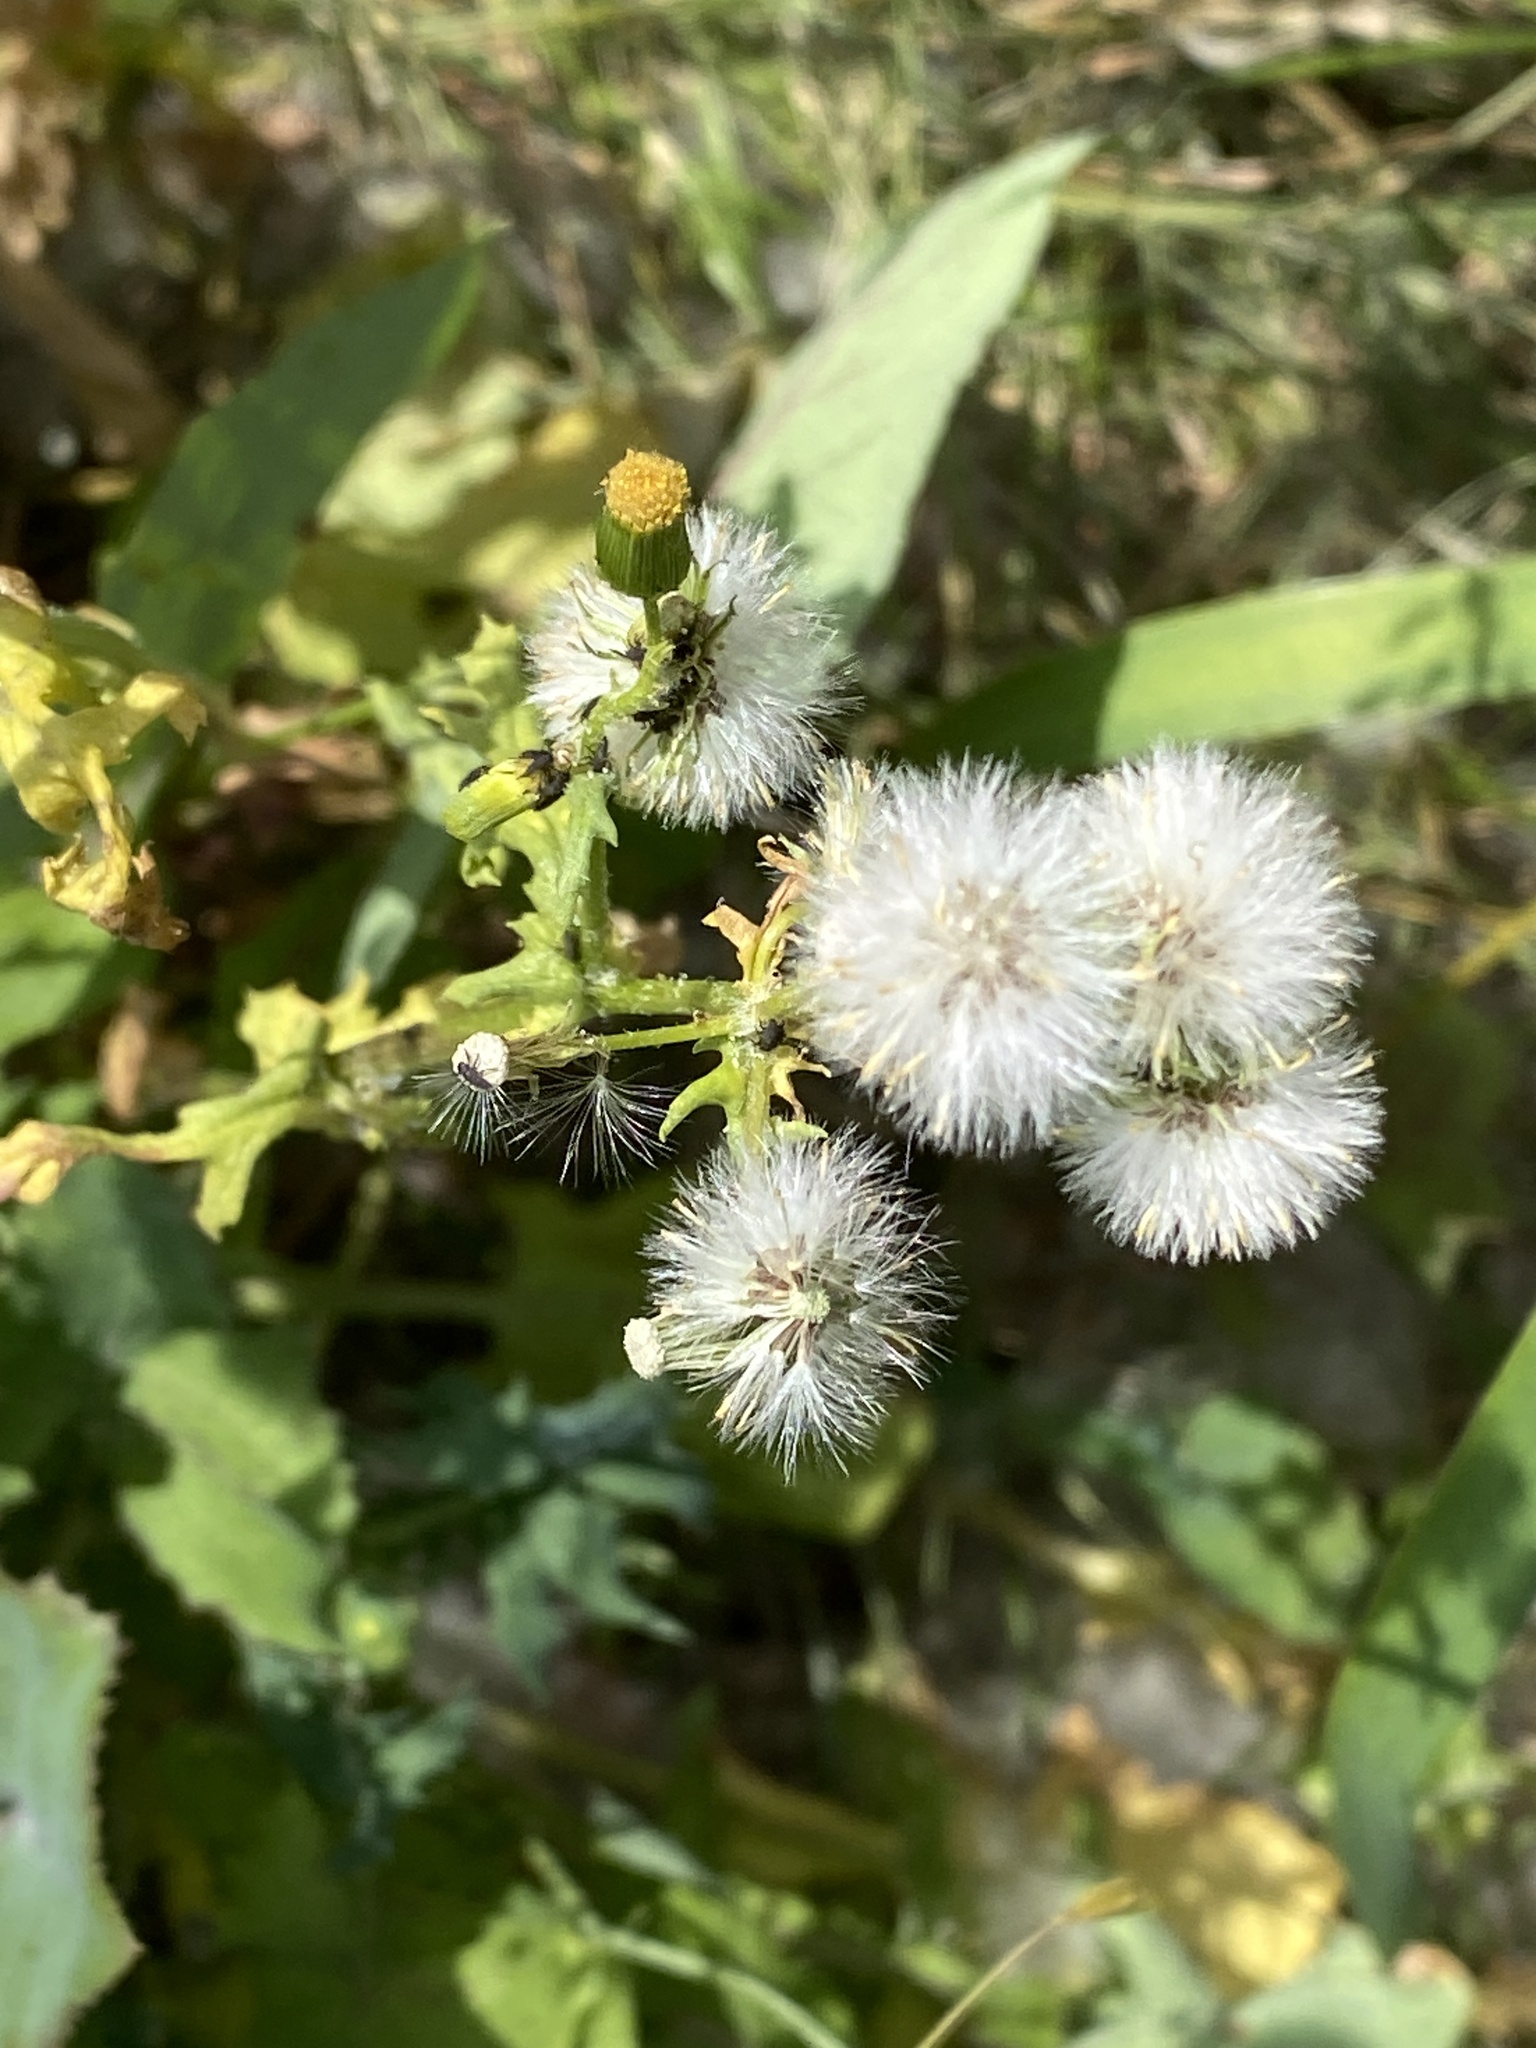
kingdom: Plantae
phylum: Tracheophyta
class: Magnoliopsida
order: Asterales
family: Asteraceae
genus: Senecio
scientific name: Senecio vulgaris
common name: Old-man-in-the-spring
